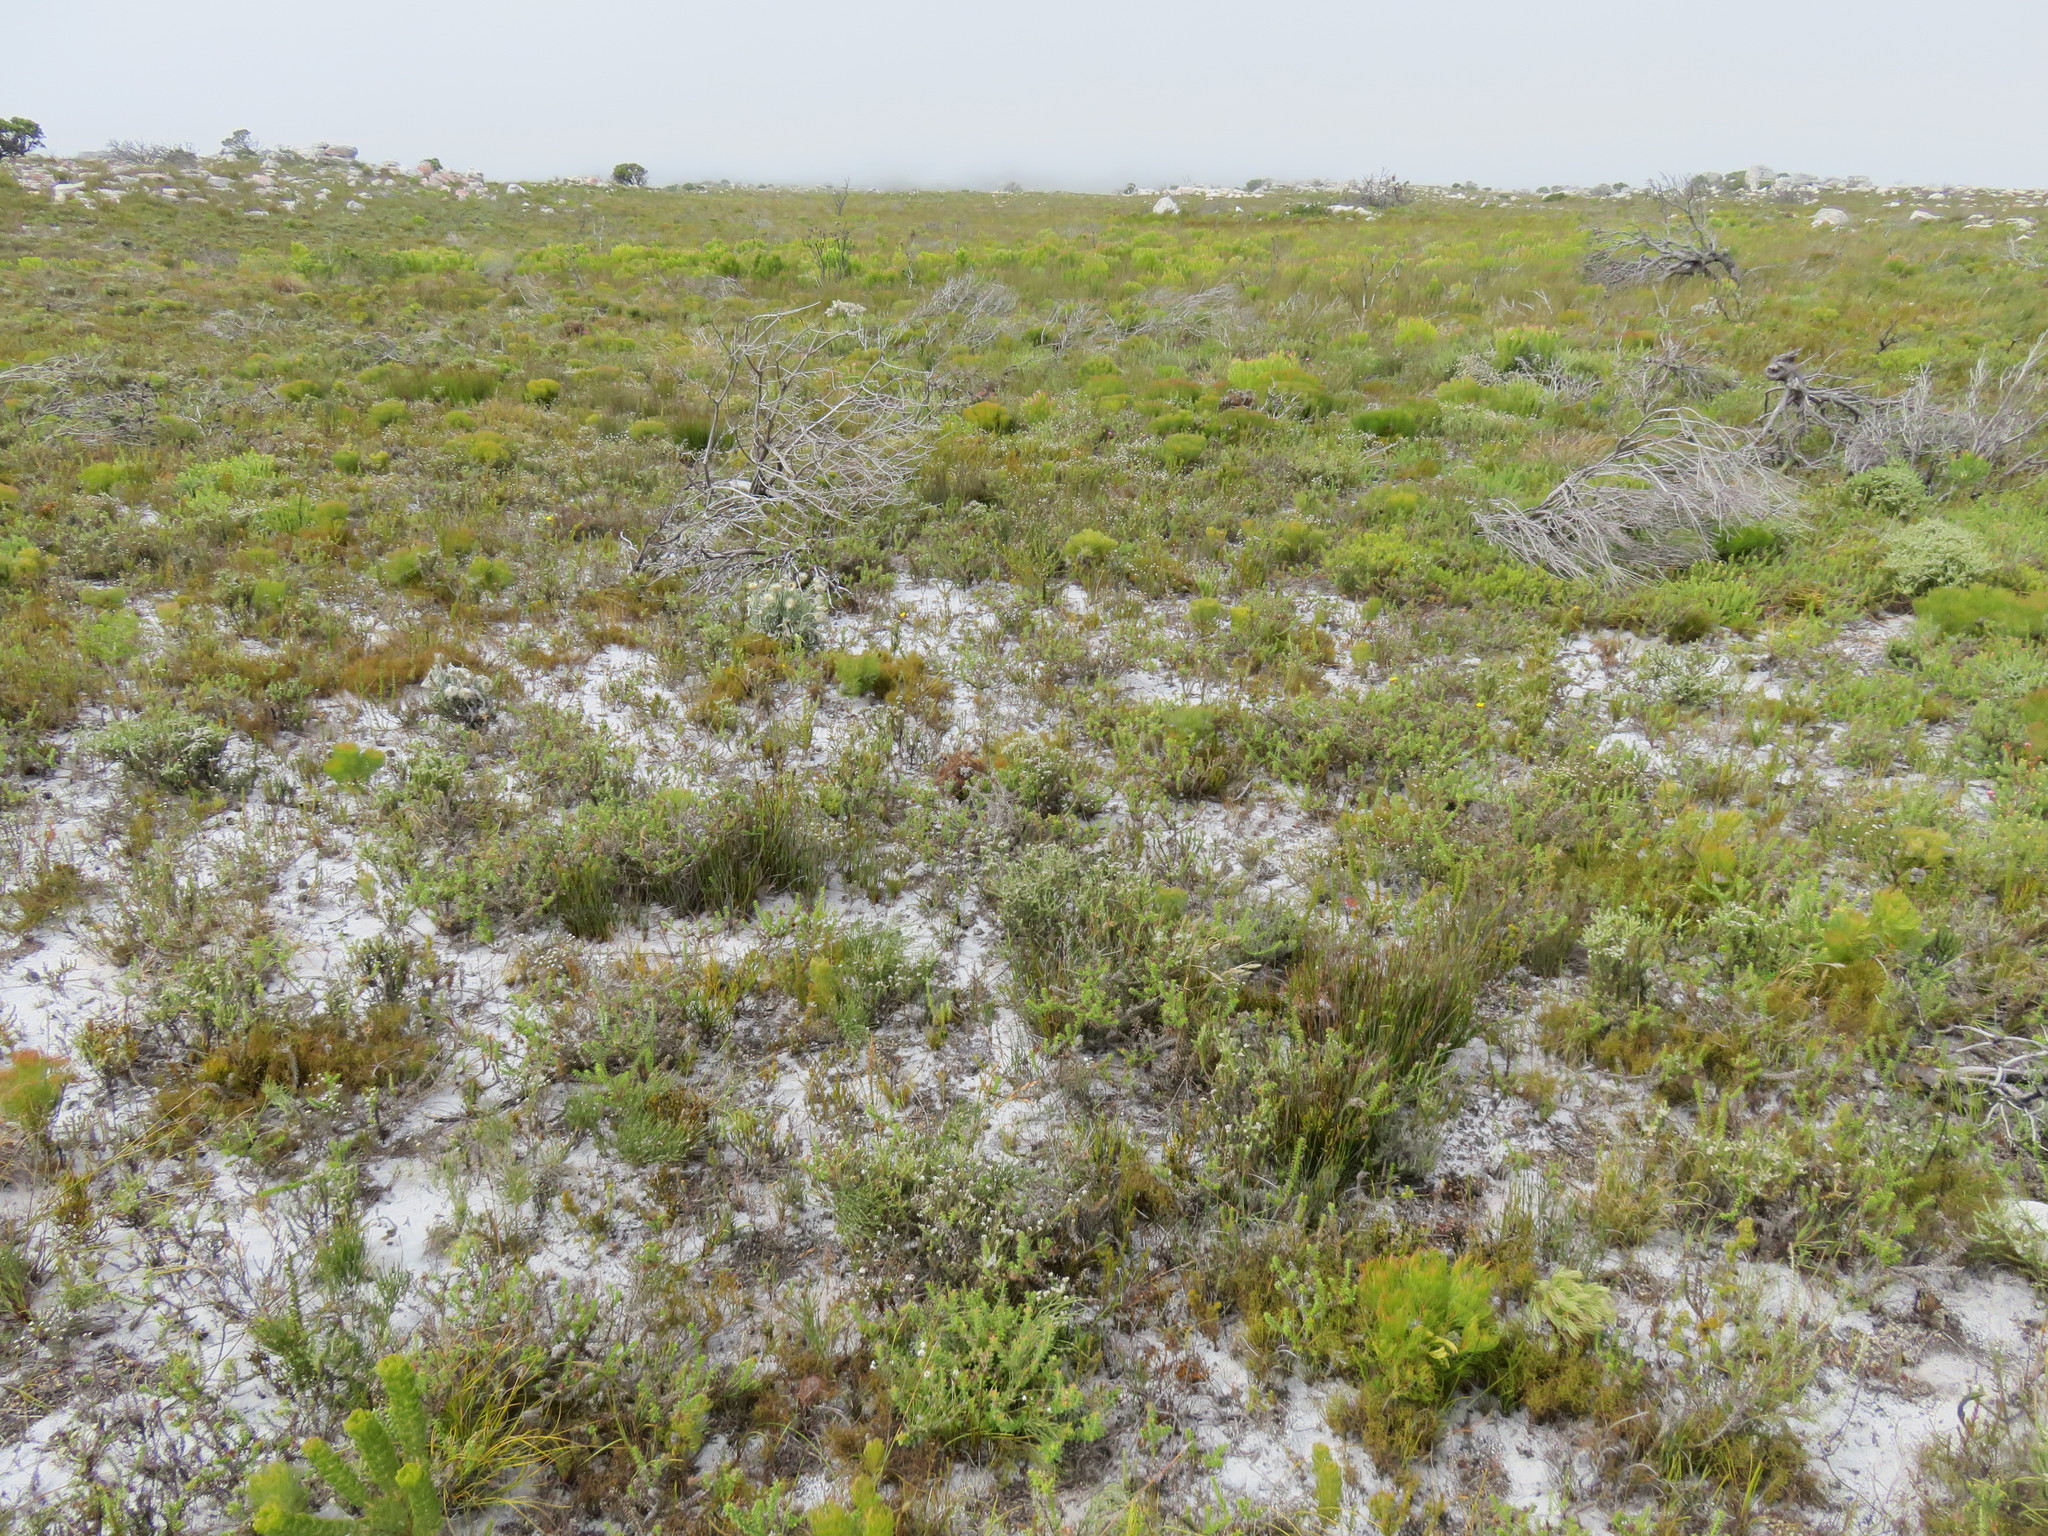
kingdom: Plantae
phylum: Tracheophyta
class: Magnoliopsida
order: Proteales
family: Proteaceae
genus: Serruria
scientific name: Serruria glomerata
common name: Cluster spiderhead
